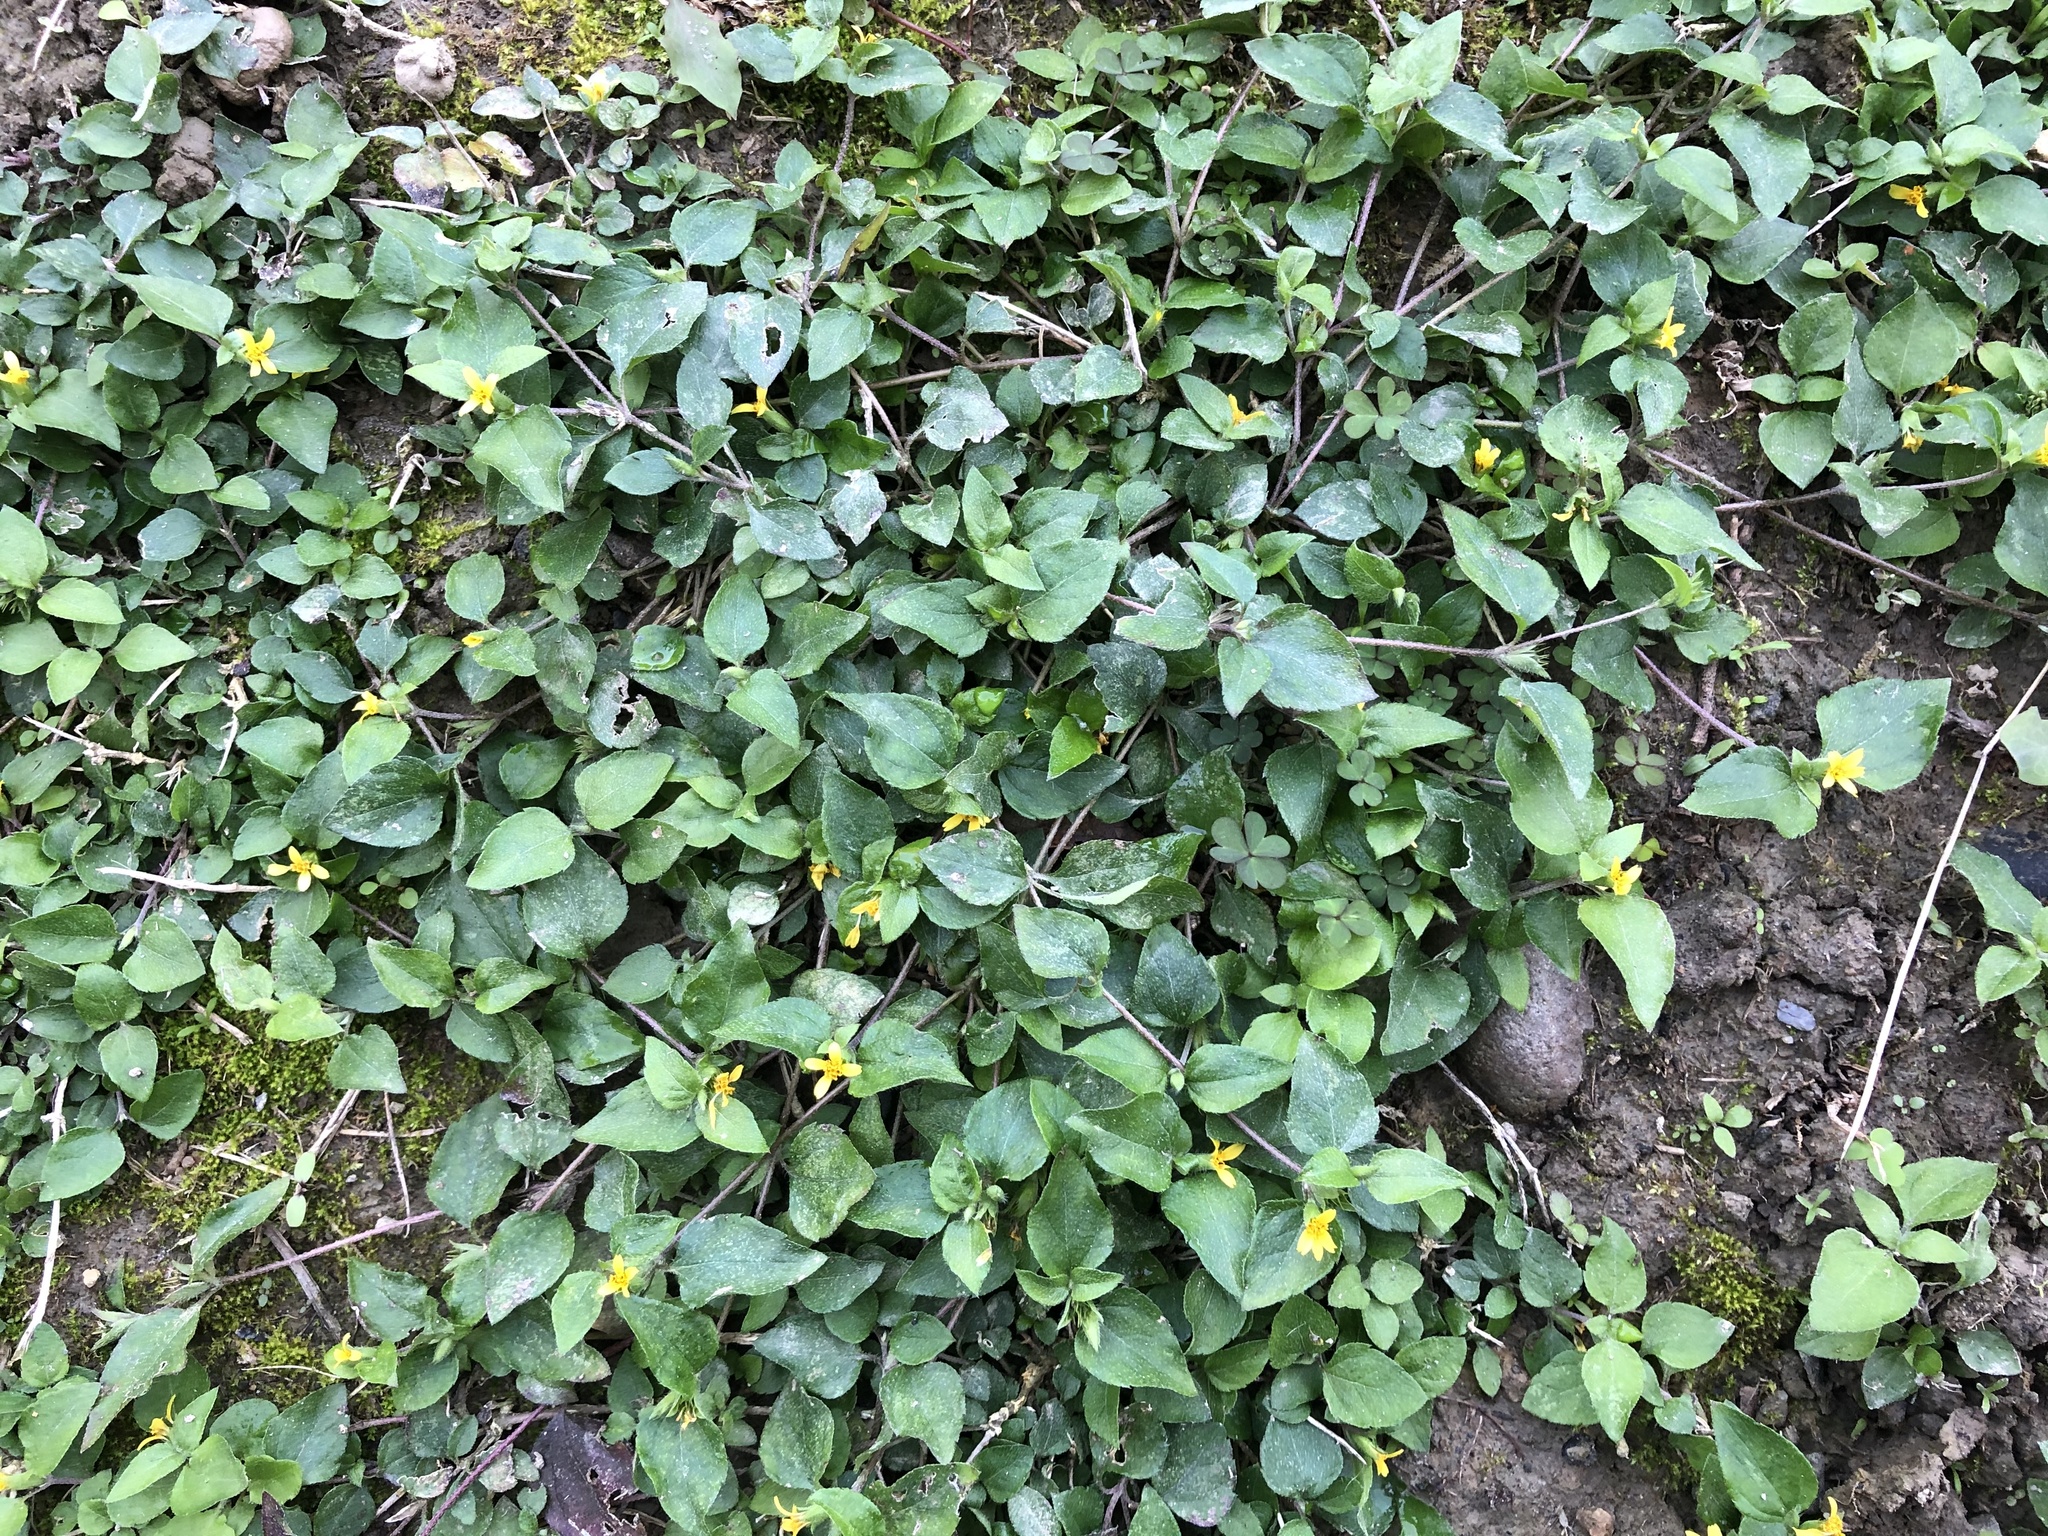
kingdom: Plantae
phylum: Tracheophyta
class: Magnoliopsida
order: Asterales
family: Asteraceae
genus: Calyptocarpus
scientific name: Calyptocarpus vialis
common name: Straggler daisy
